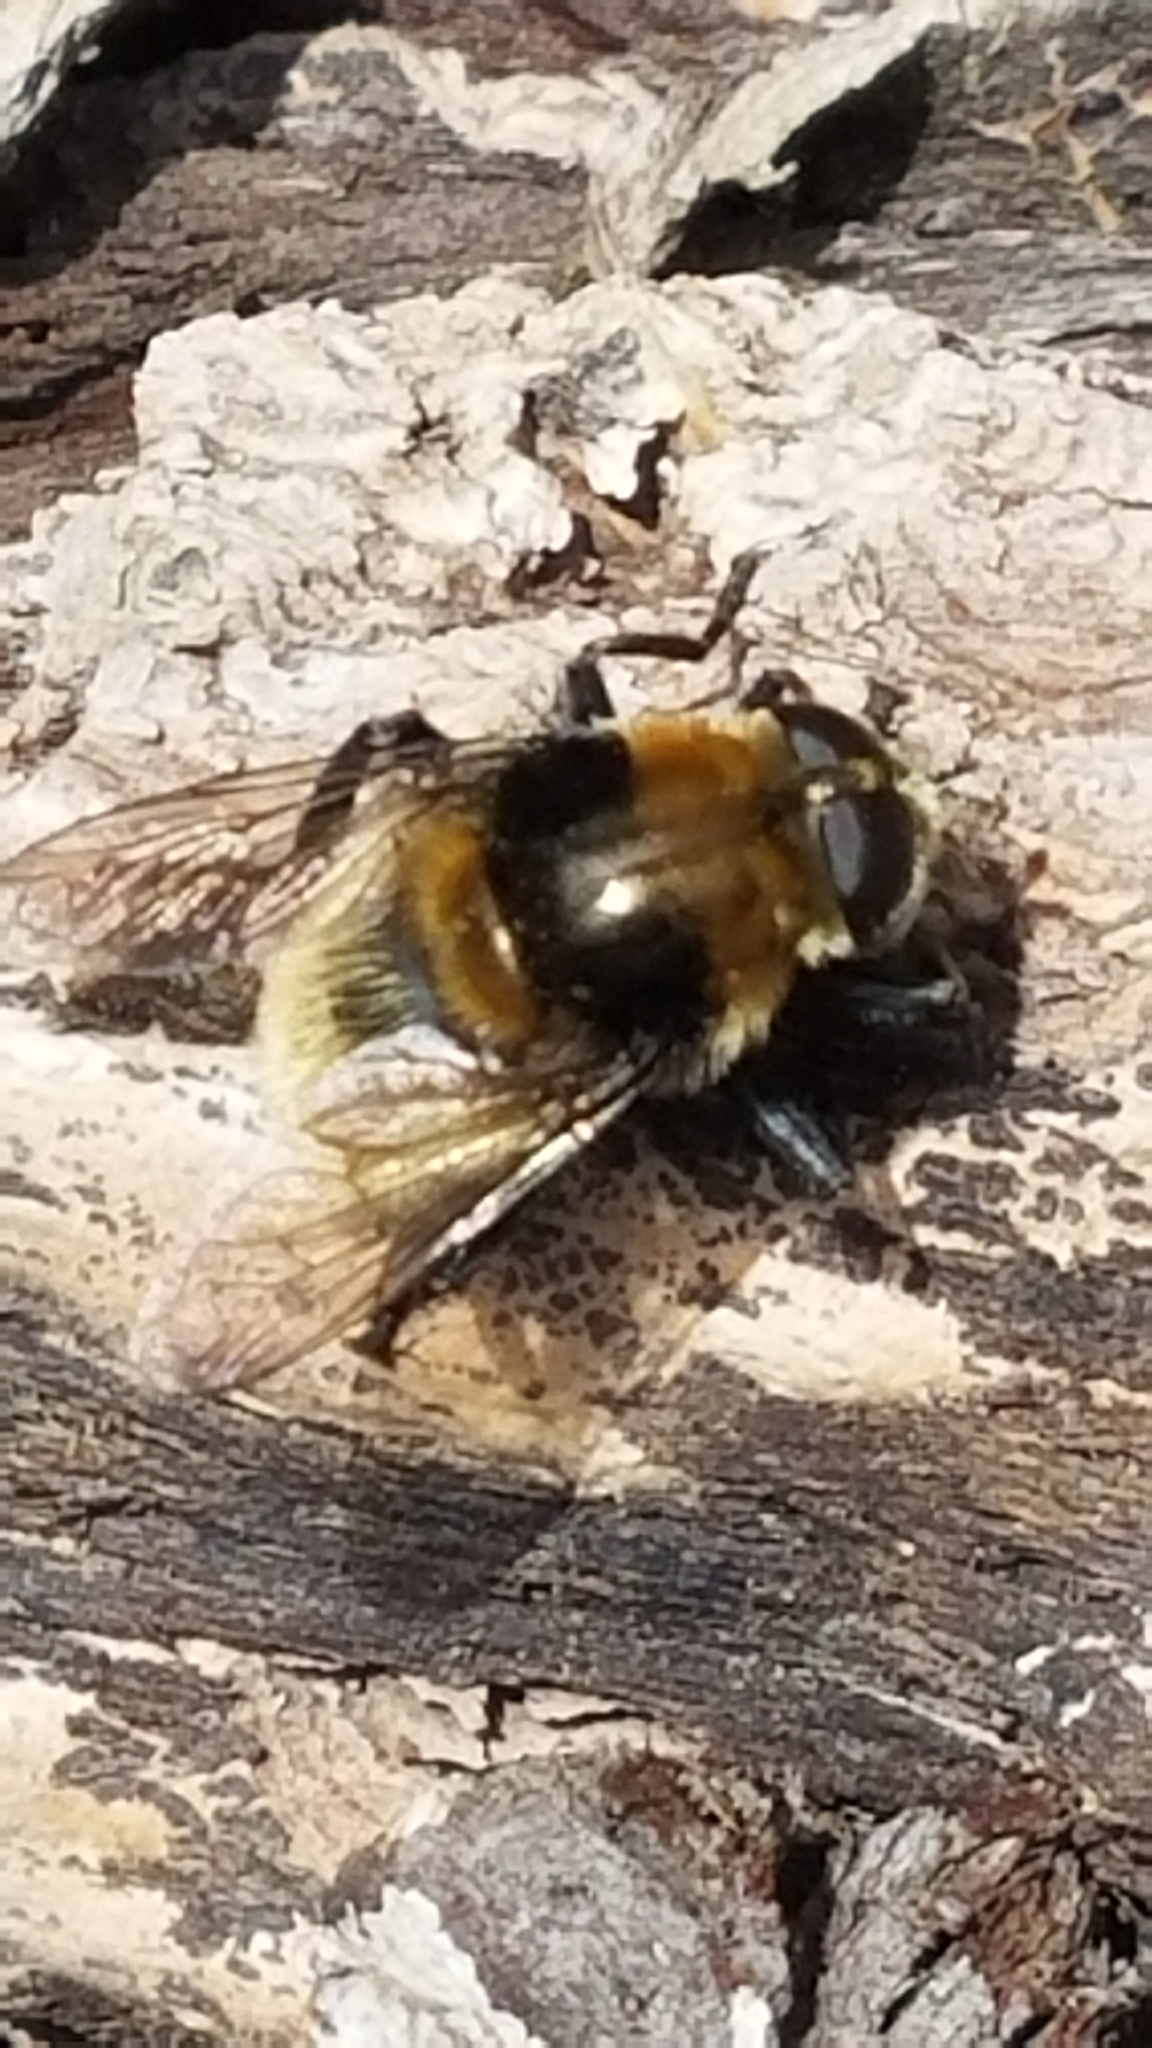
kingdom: Animalia
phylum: Arthropoda
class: Insecta
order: Diptera
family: Syrphidae
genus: Merodon
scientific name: Merodon equestris
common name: Greater bulb-fly
